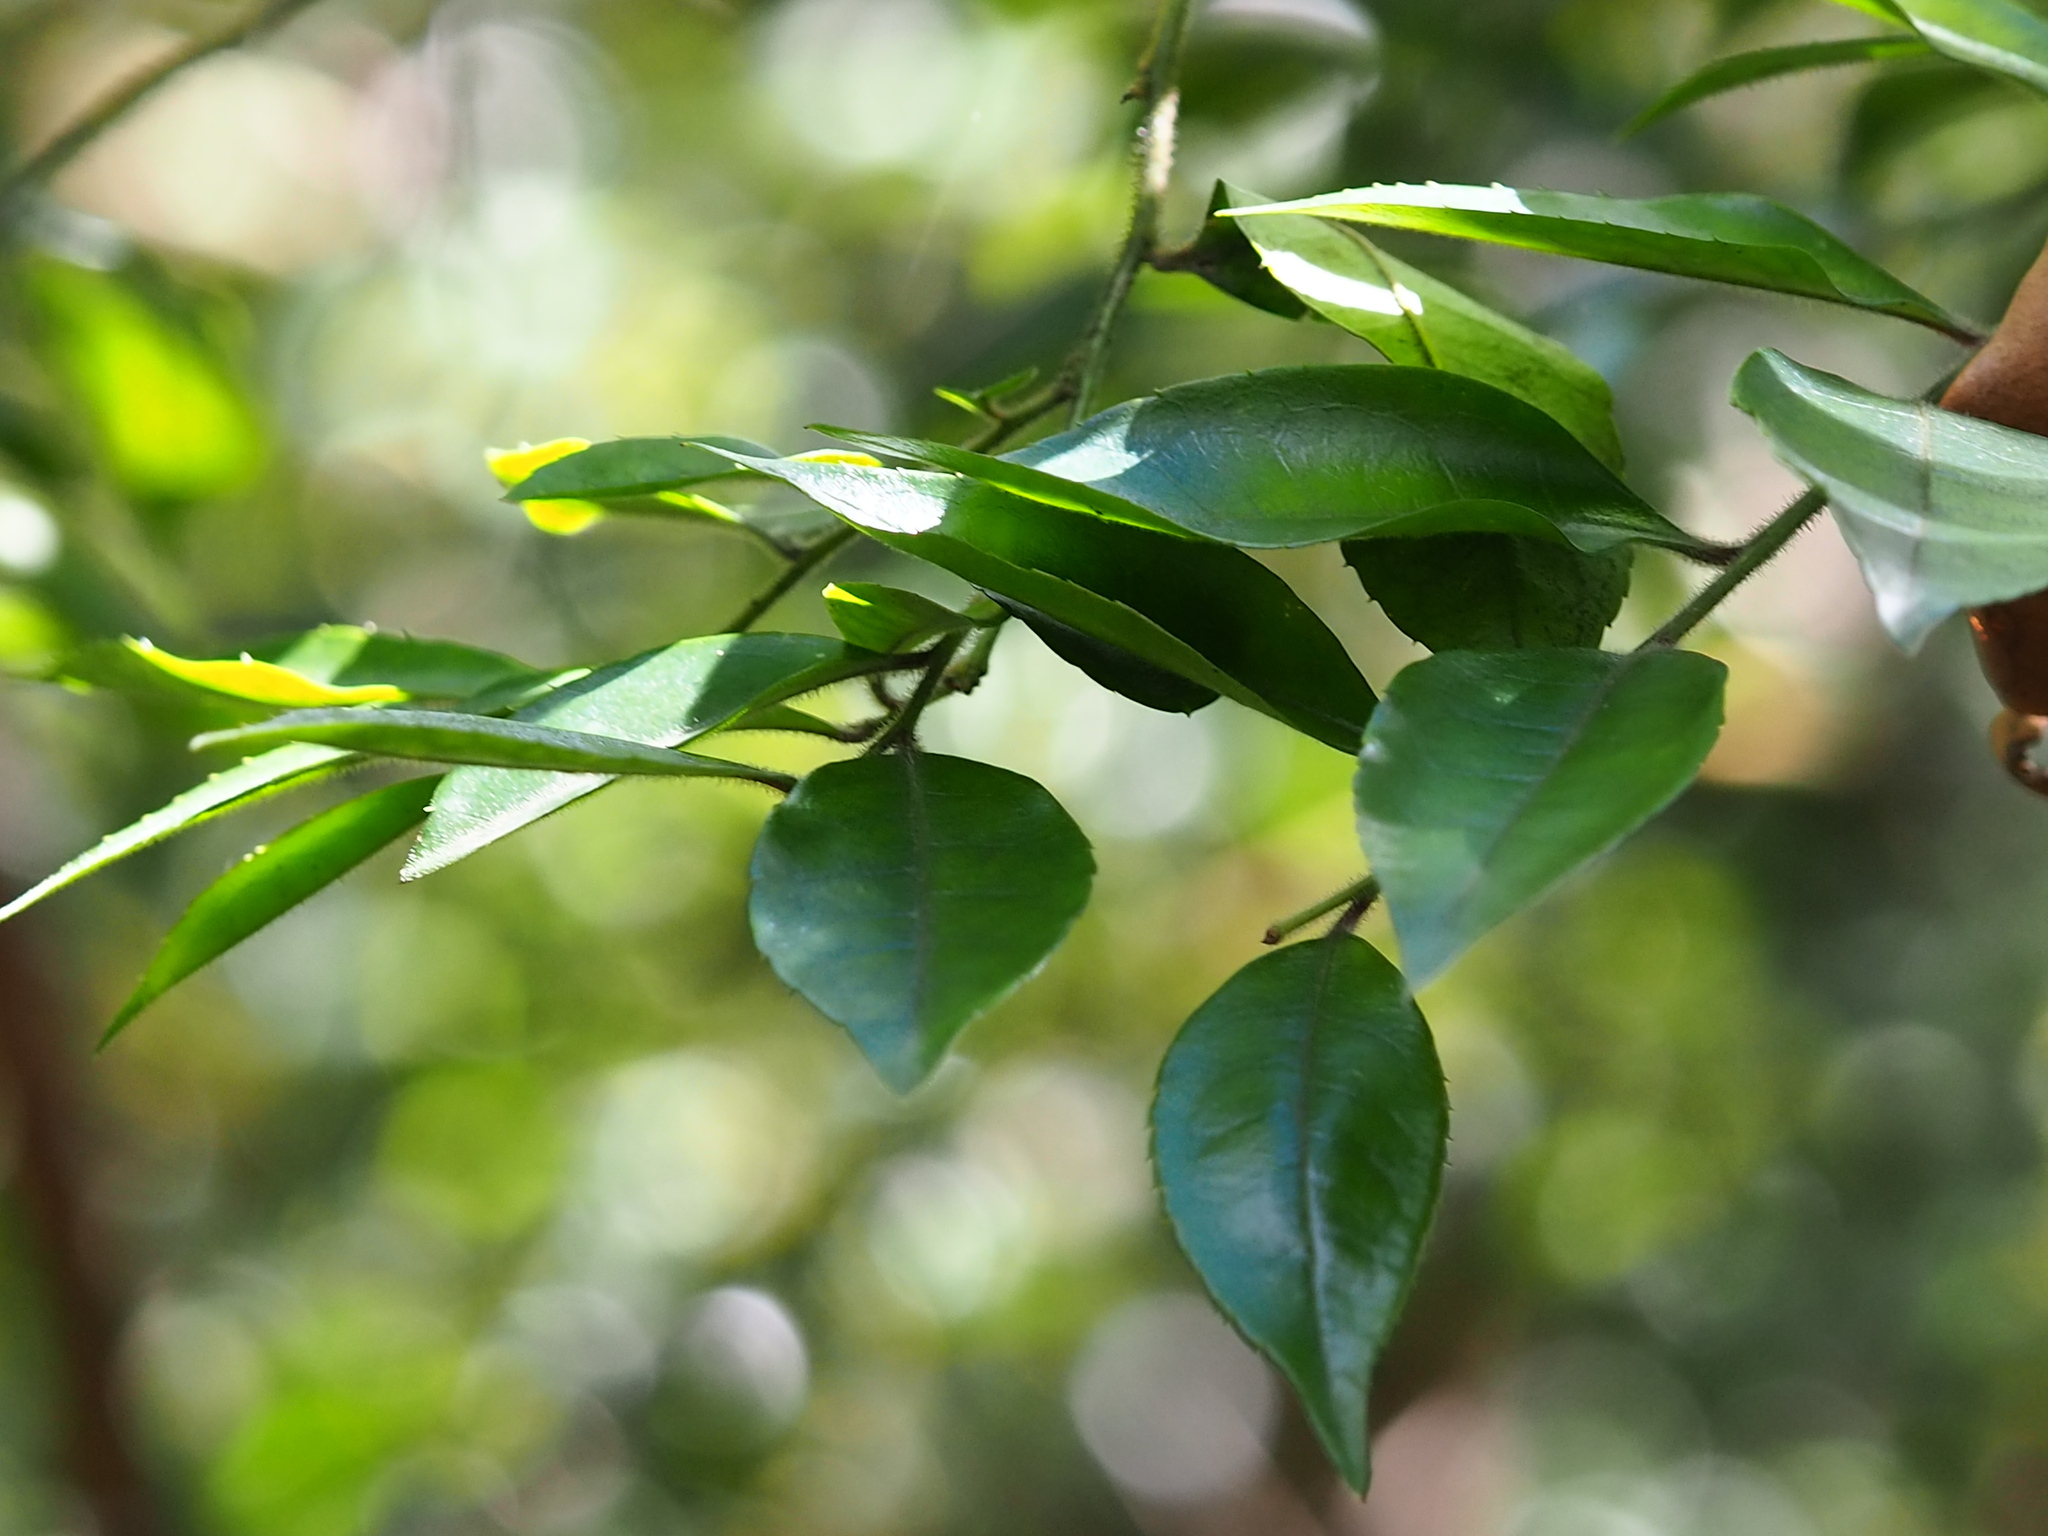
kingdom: Plantae
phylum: Tracheophyta
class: Magnoliopsida
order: Aquifoliales
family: Aquifoliaceae
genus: Ilex
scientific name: Ilex pubescens
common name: Pubescent holly
